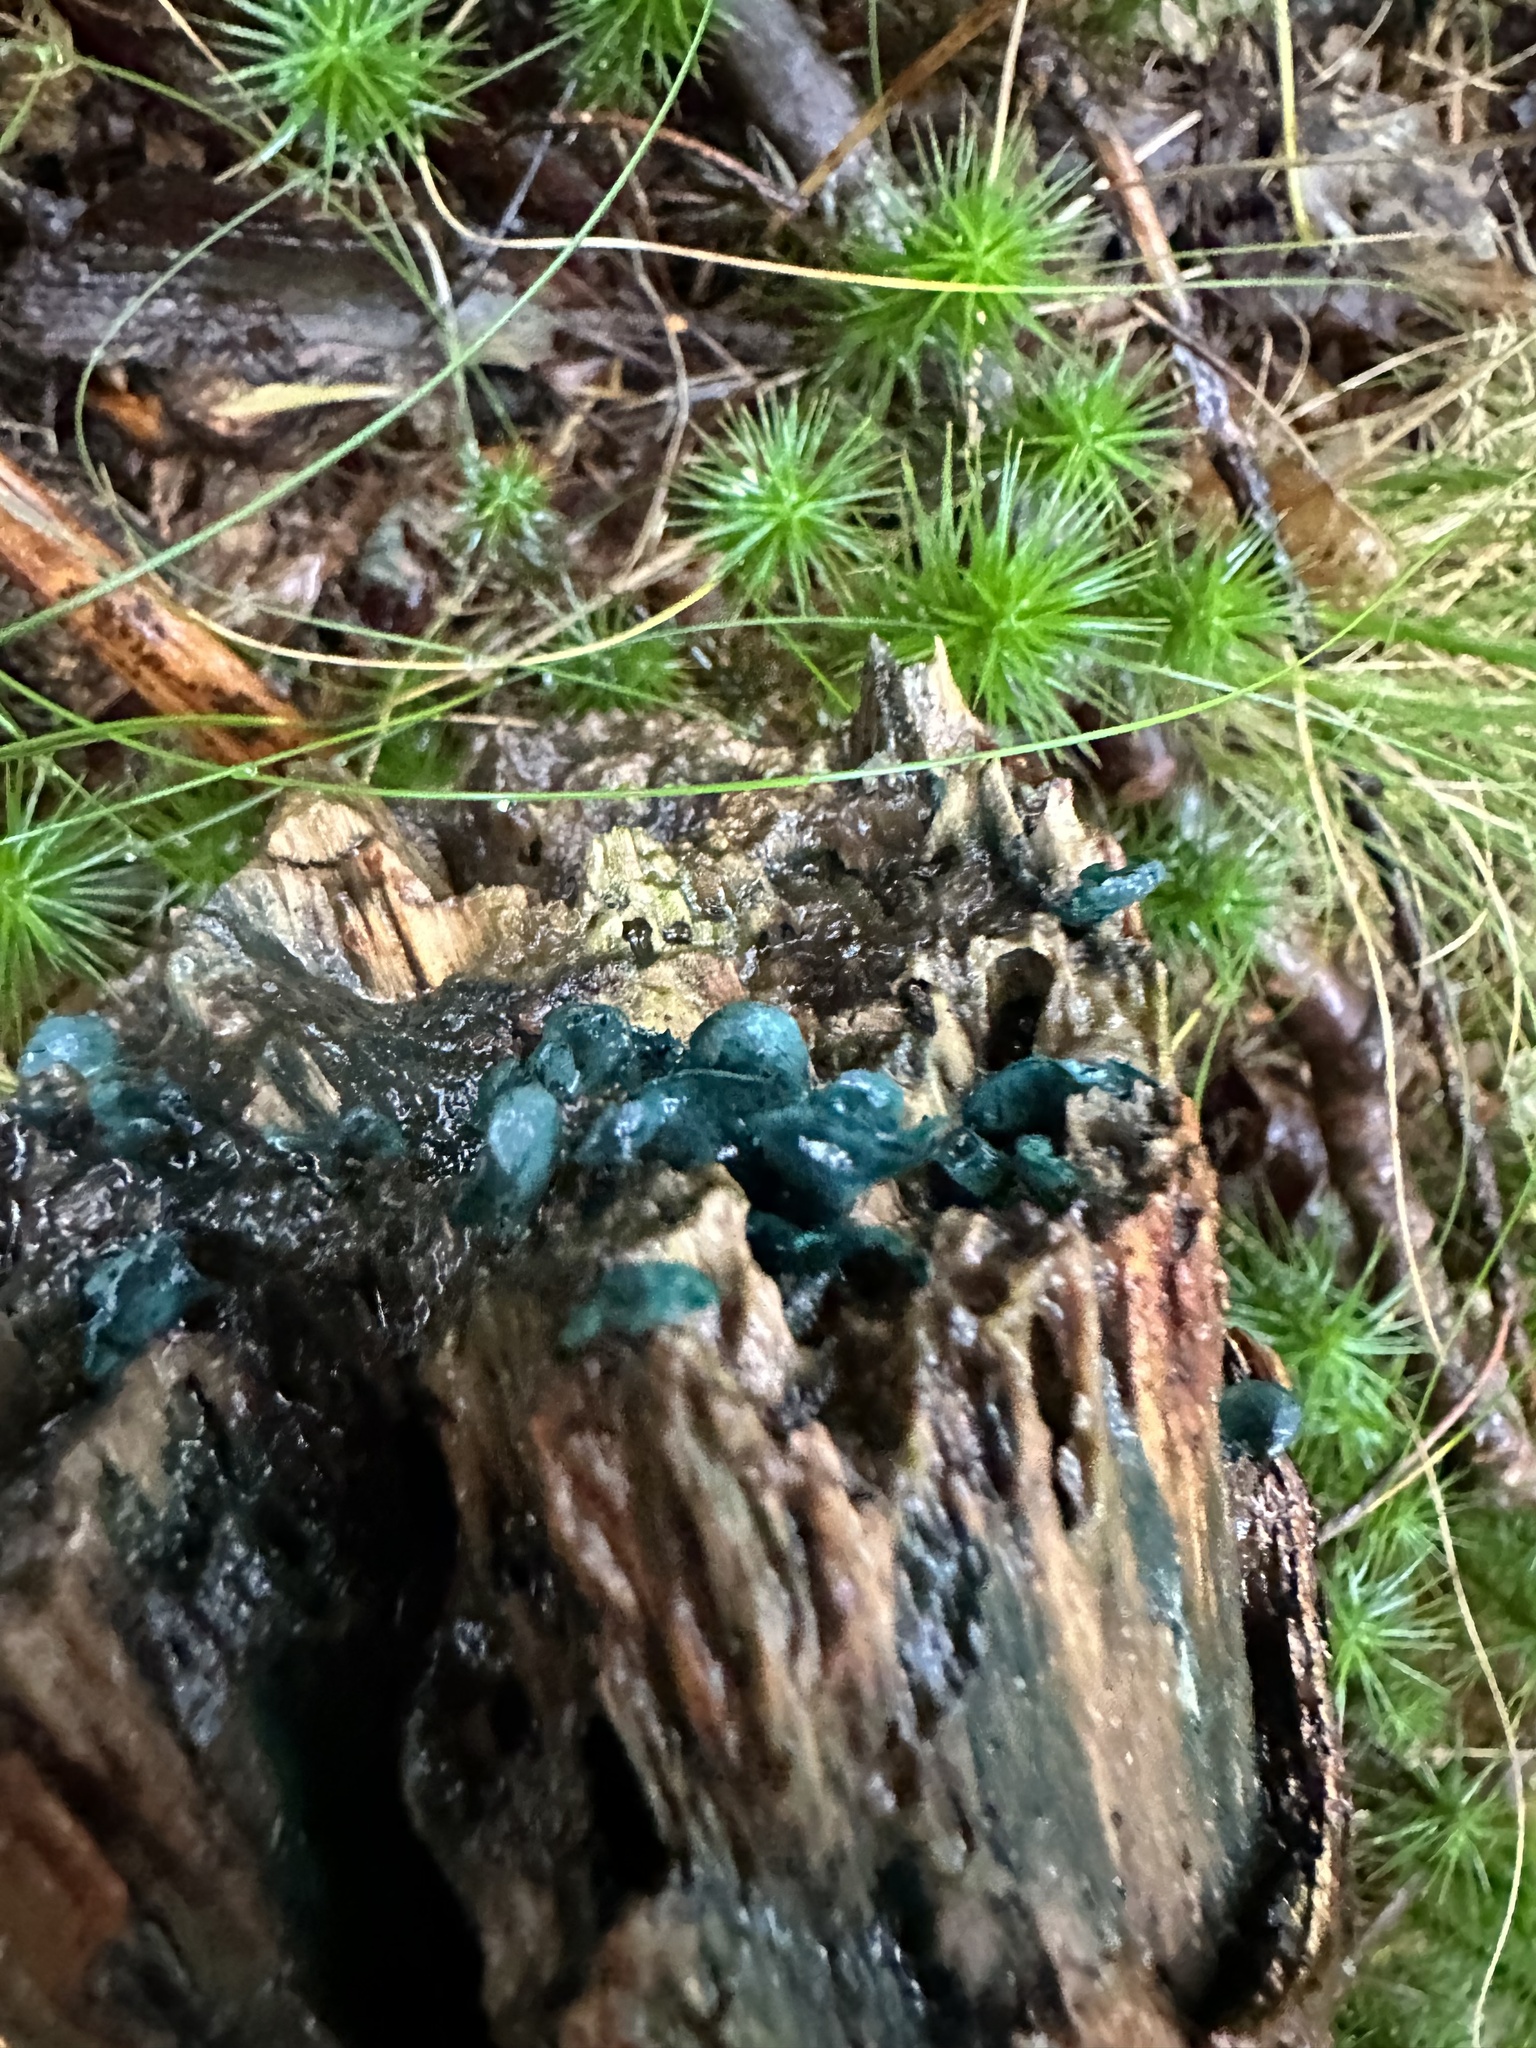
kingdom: Fungi
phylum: Ascomycota
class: Leotiomycetes
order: Helotiales
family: Chlorociboriaceae
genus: Chlorociboria
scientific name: Chlorociboria aeruginascens
